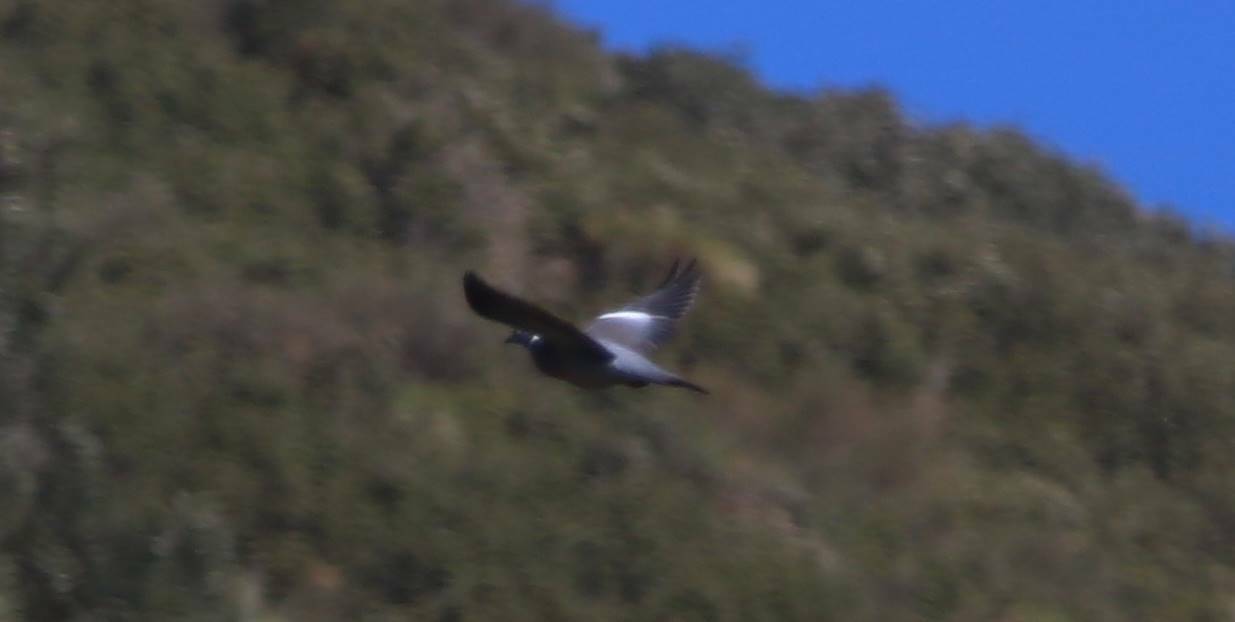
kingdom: Animalia
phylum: Chordata
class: Aves
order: Columbiformes
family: Columbidae
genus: Columba
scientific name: Columba palumbus
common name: Common wood pigeon
